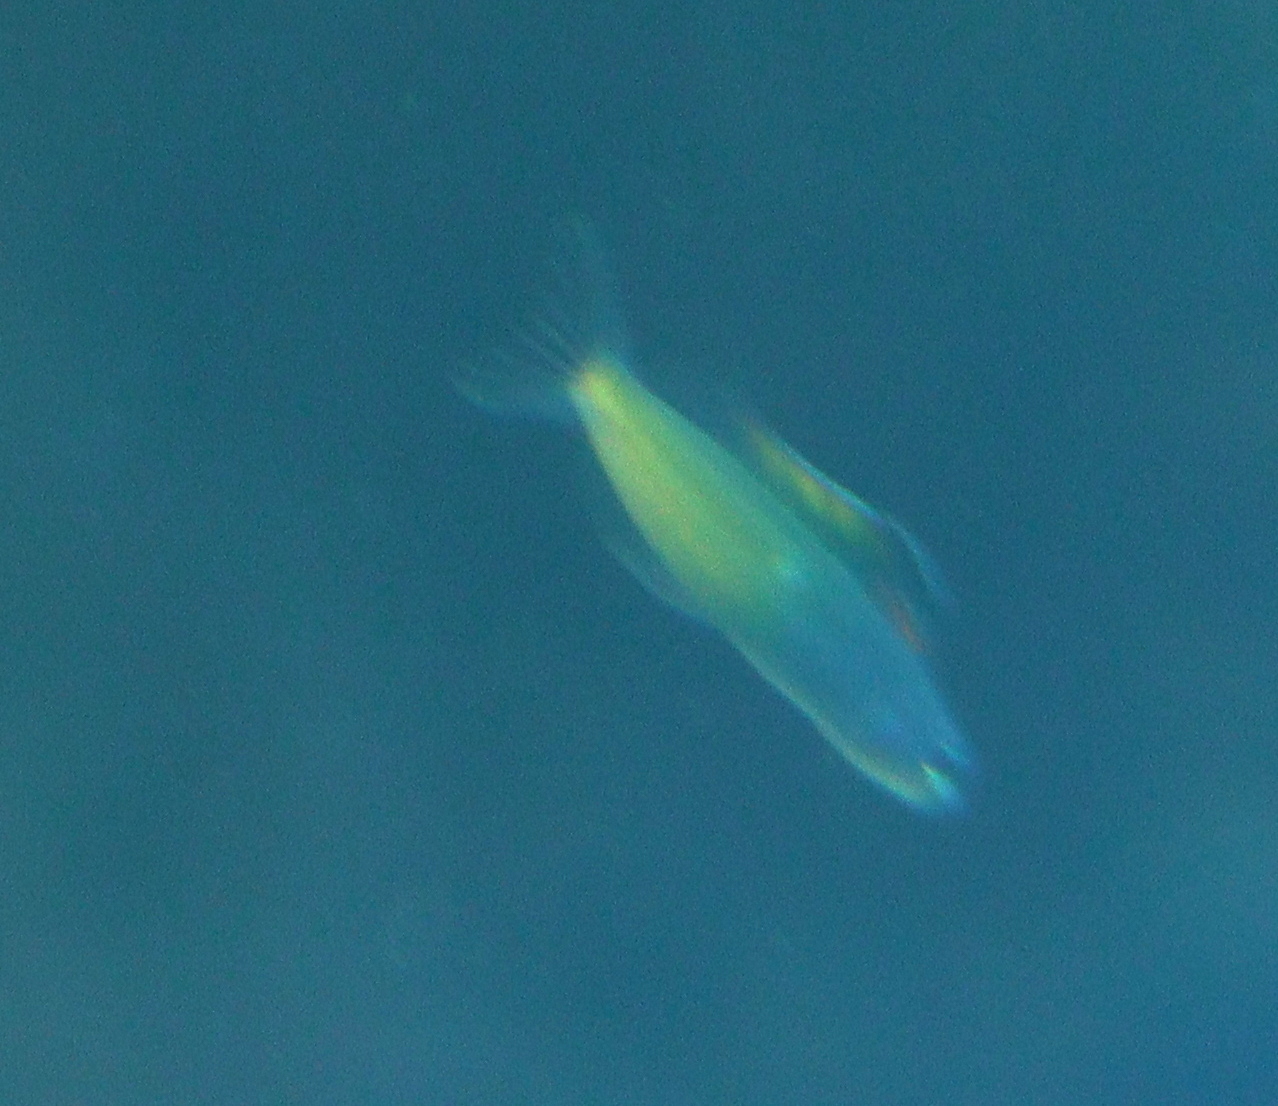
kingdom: Animalia
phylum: Chordata
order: Perciformes
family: Blenniidae
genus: Plagiotremus
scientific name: Plagiotremus townsendi
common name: Townsend's fangblenny
